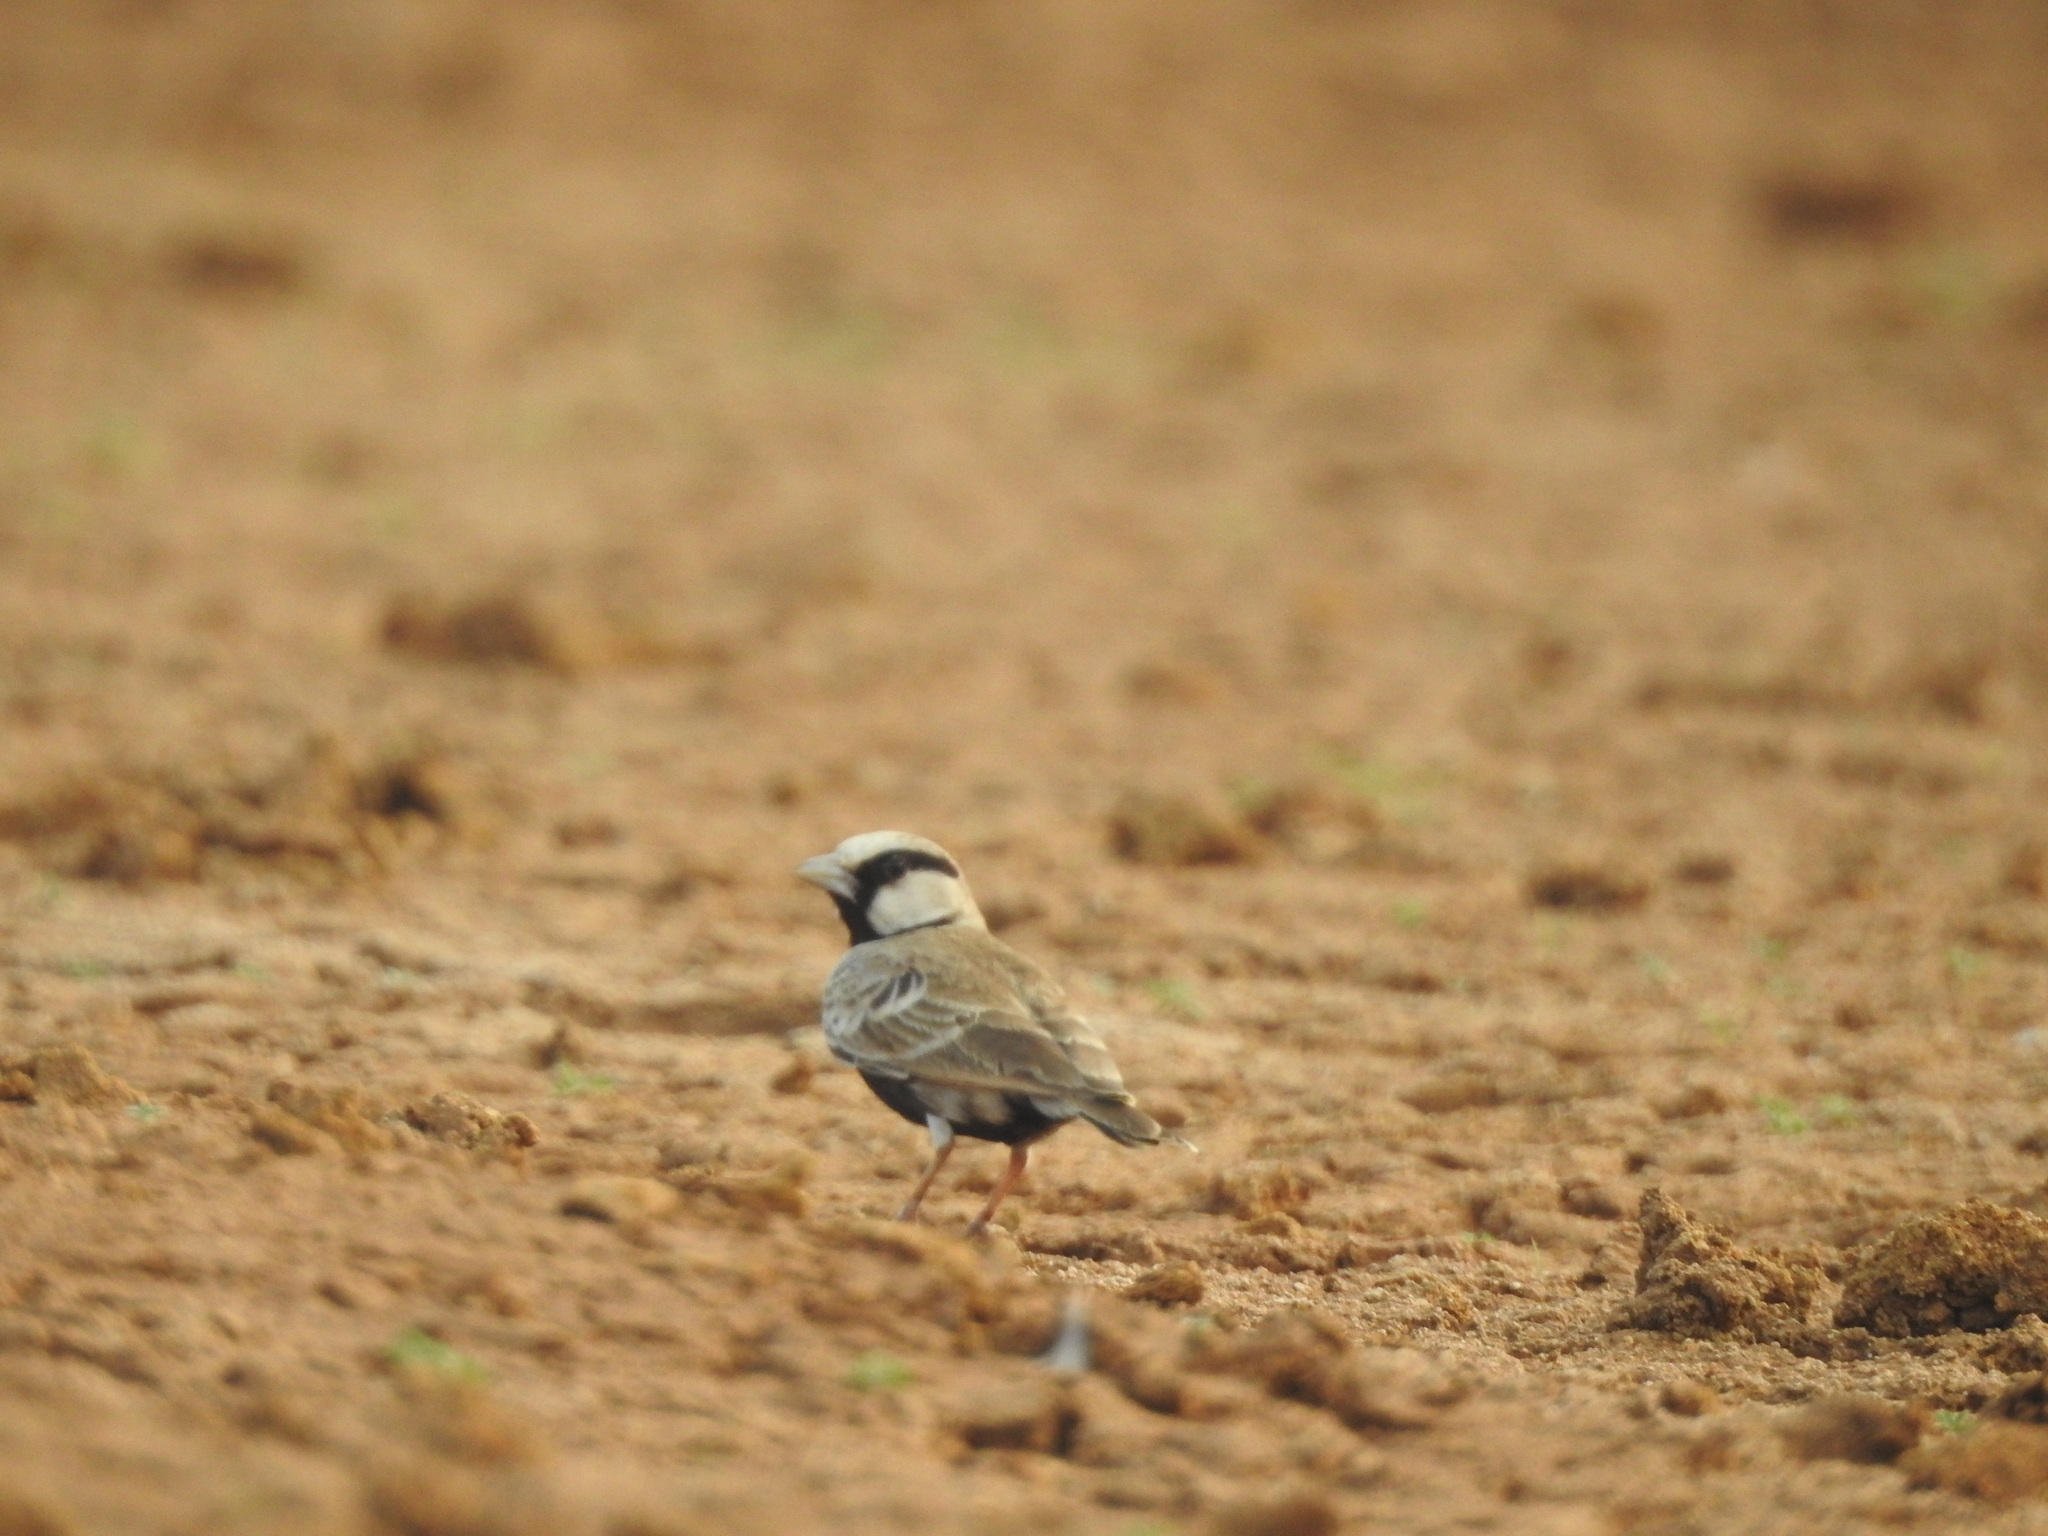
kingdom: Animalia
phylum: Chordata
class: Aves
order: Passeriformes
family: Alaudidae
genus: Eremopterix
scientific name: Eremopterix griseus
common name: Ashy-crowned sparrow-lark
